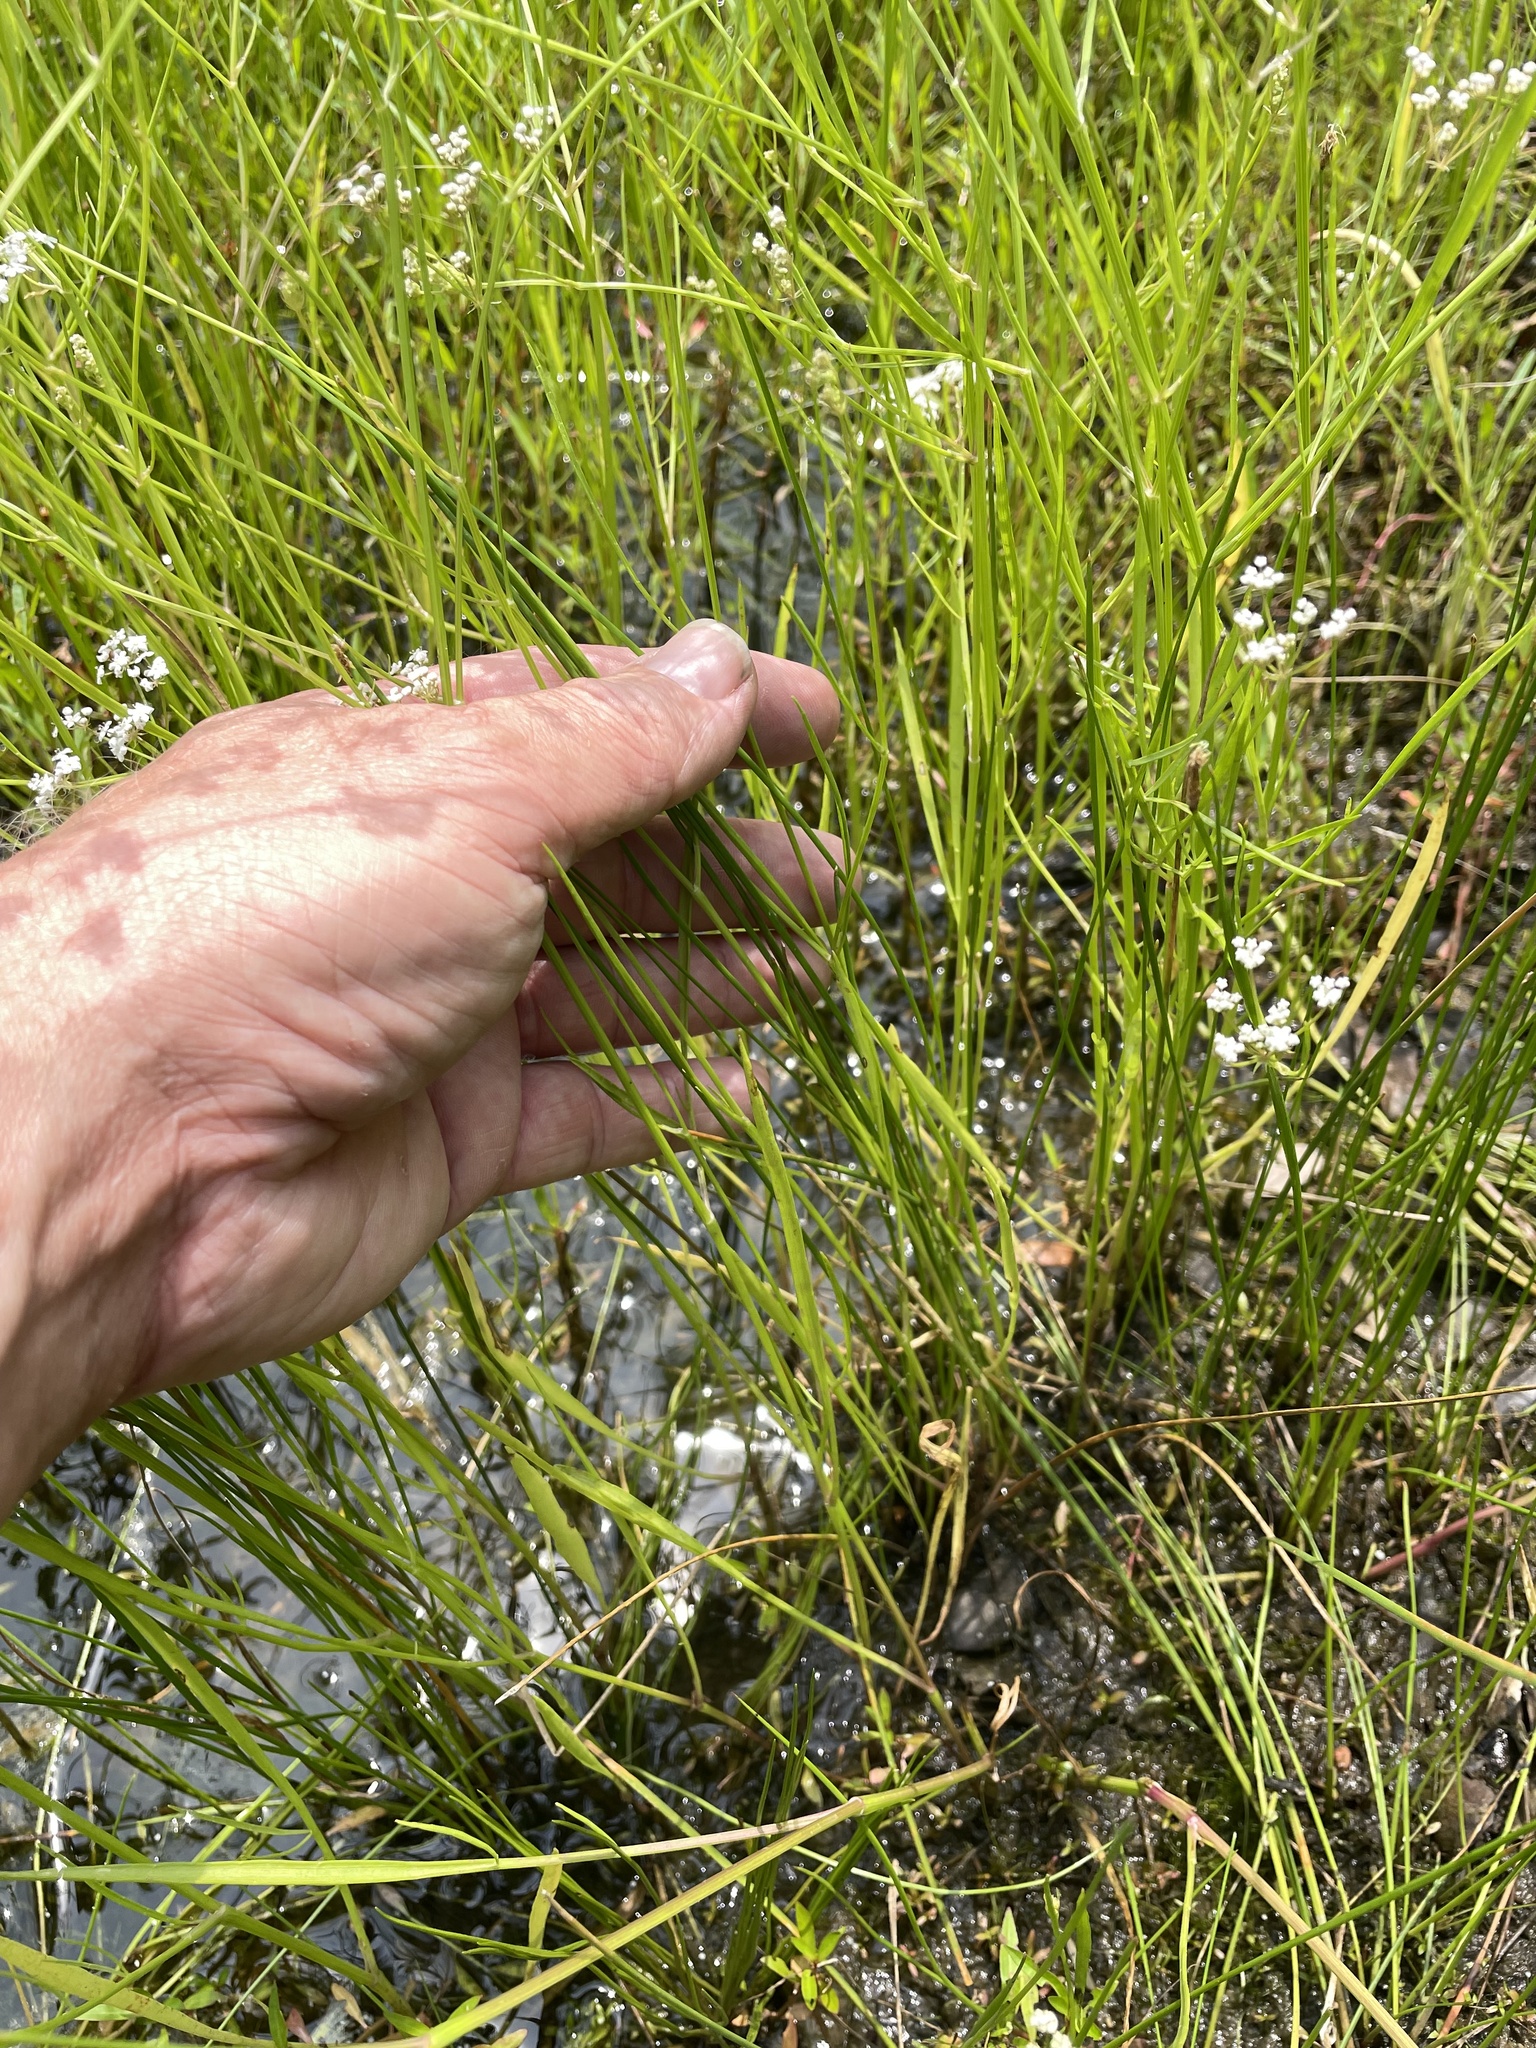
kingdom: Plantae
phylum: Tracheophyta
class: Magnoliopsida
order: Apiales
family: Apiaceae
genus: Limnosciadium
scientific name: Limnosciadium pinnatum
